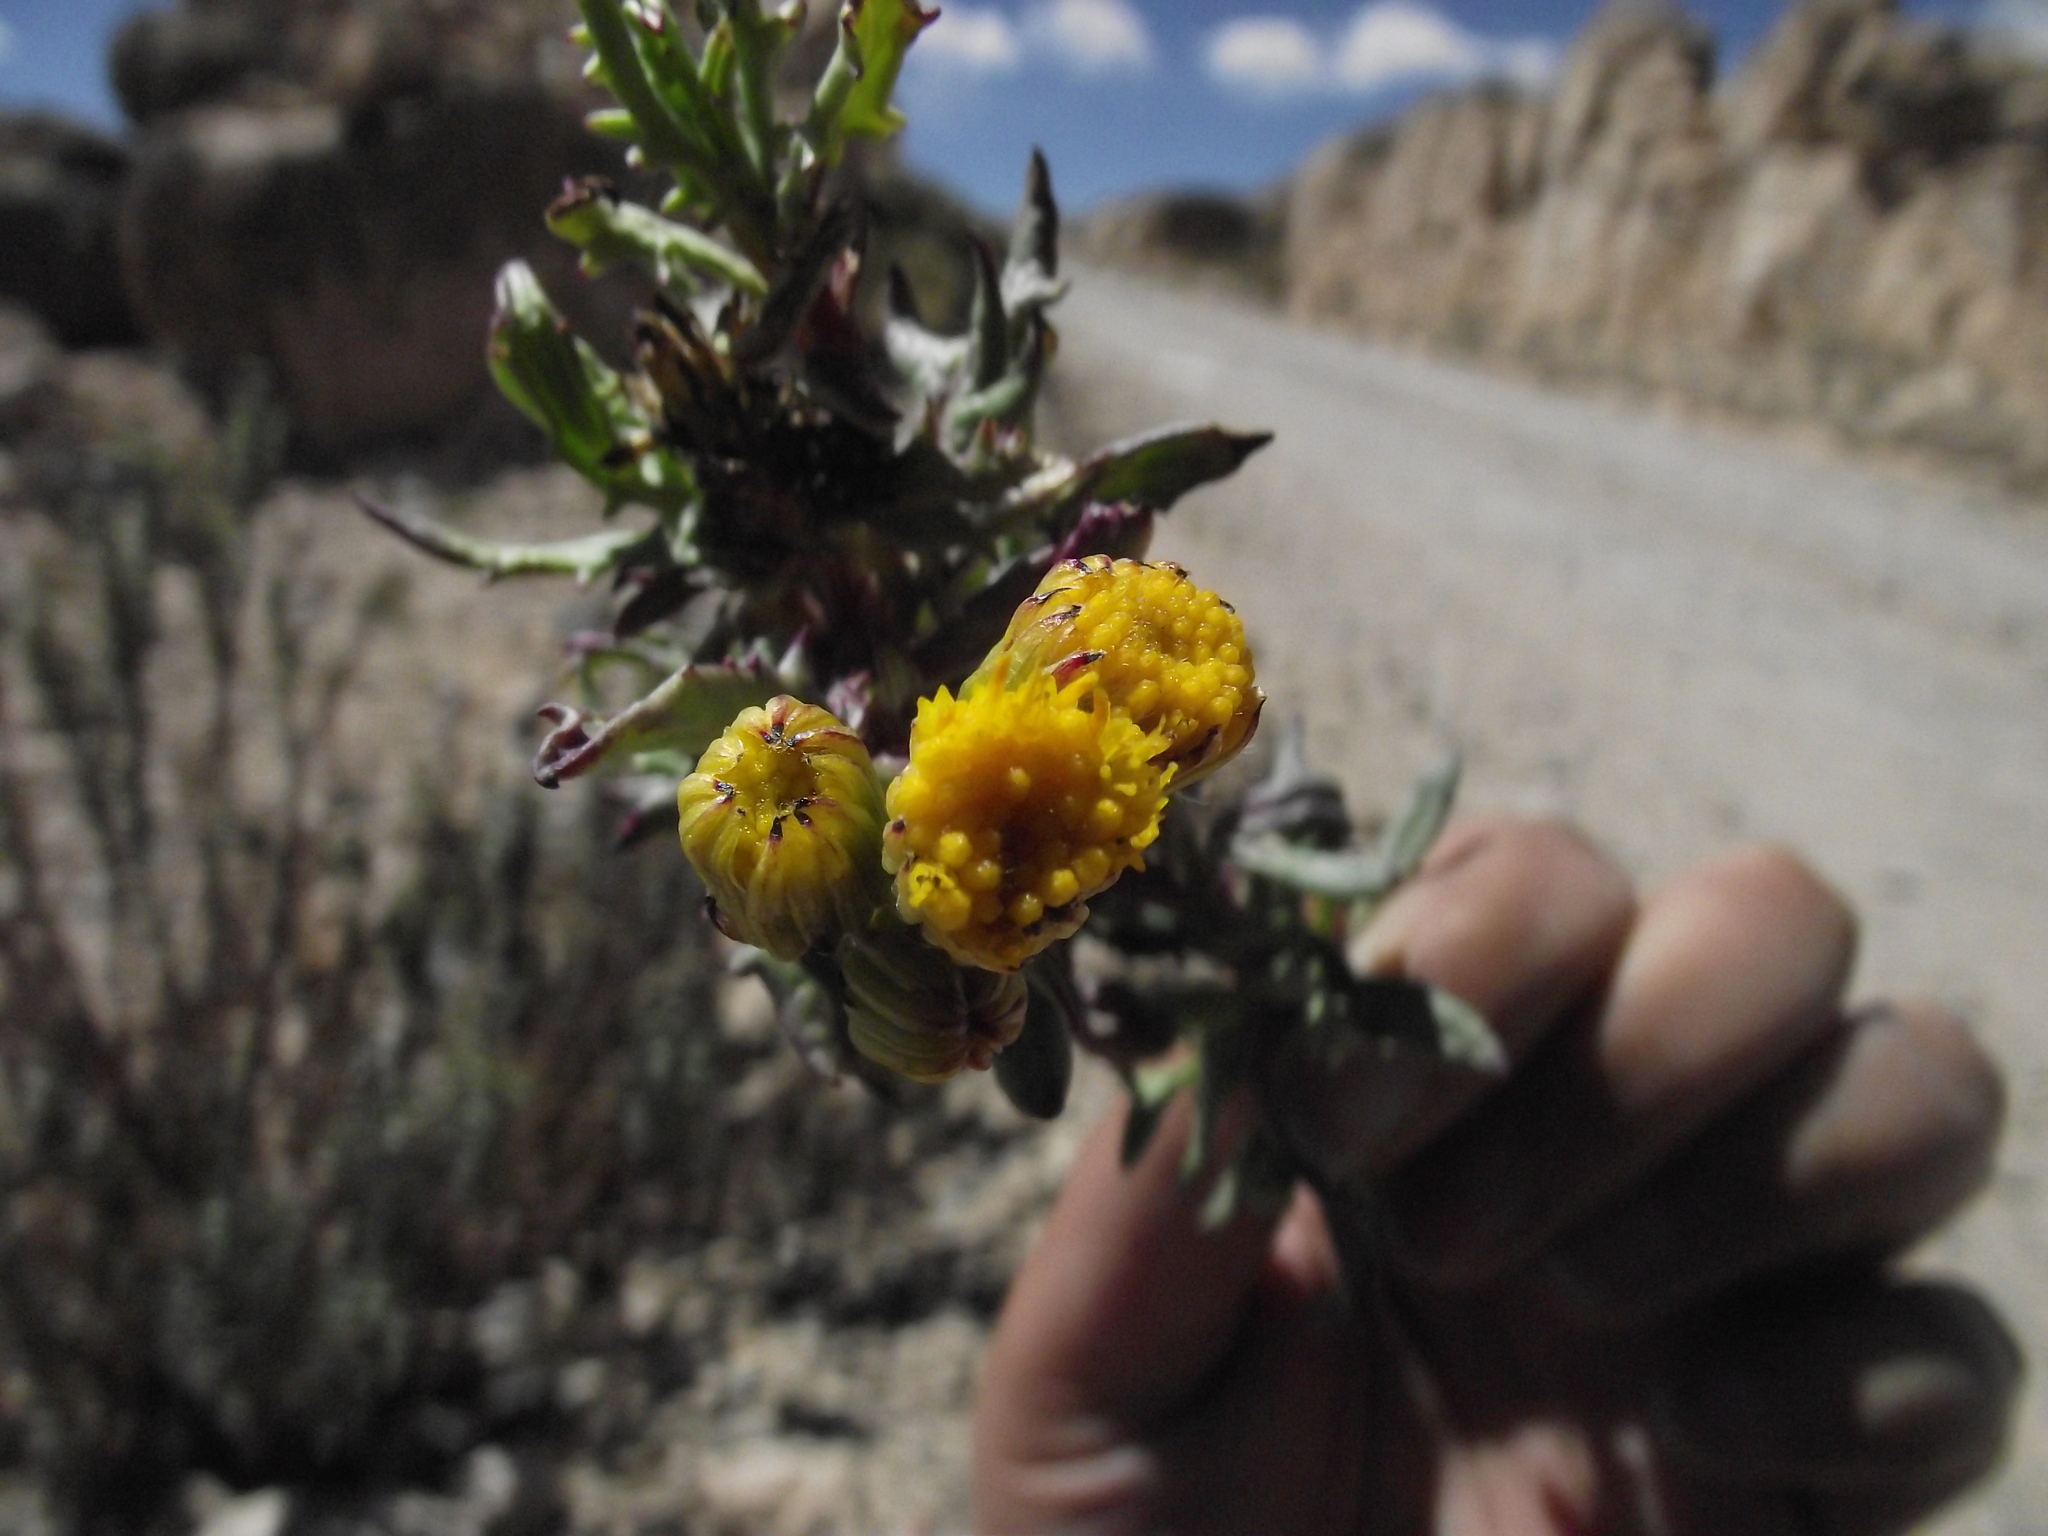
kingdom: Plantae
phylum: Tracheophyta
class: Magnoliopsida
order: Asterales
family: Asteraceae
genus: Senecio
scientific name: Senecio dryophyllus
